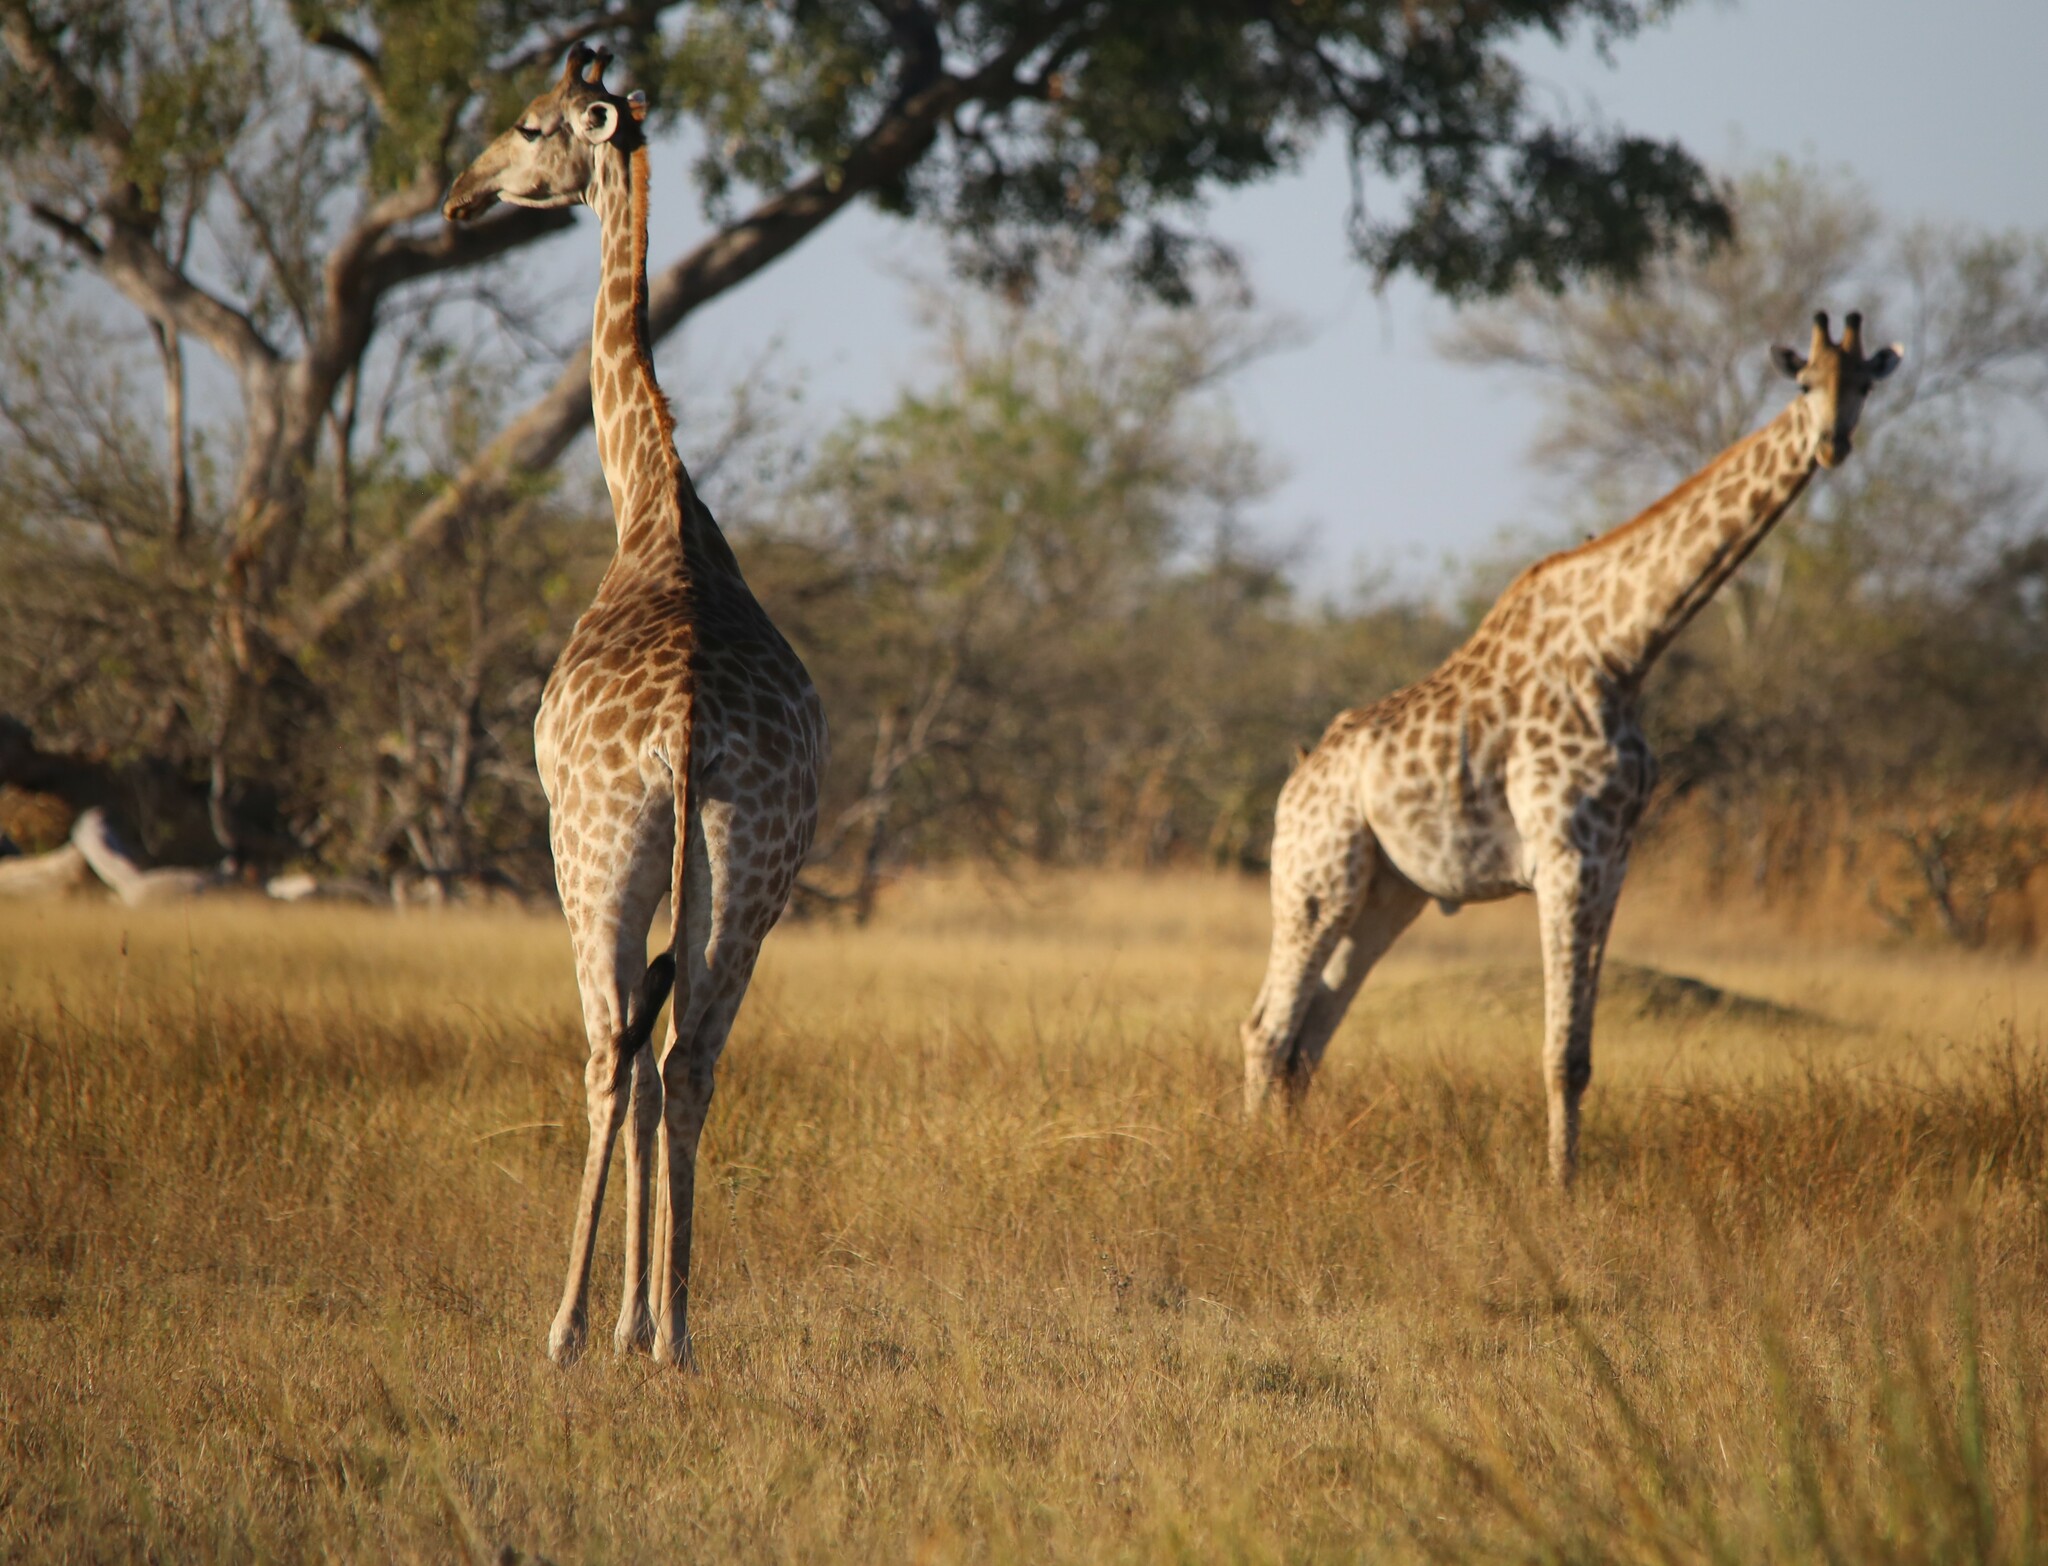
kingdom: Animalia
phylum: Chordata
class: Mammalia
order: Artiodactyla
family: Giraffidae
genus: Giraffa
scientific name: Giraffa giraffa
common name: Southern giraffe
